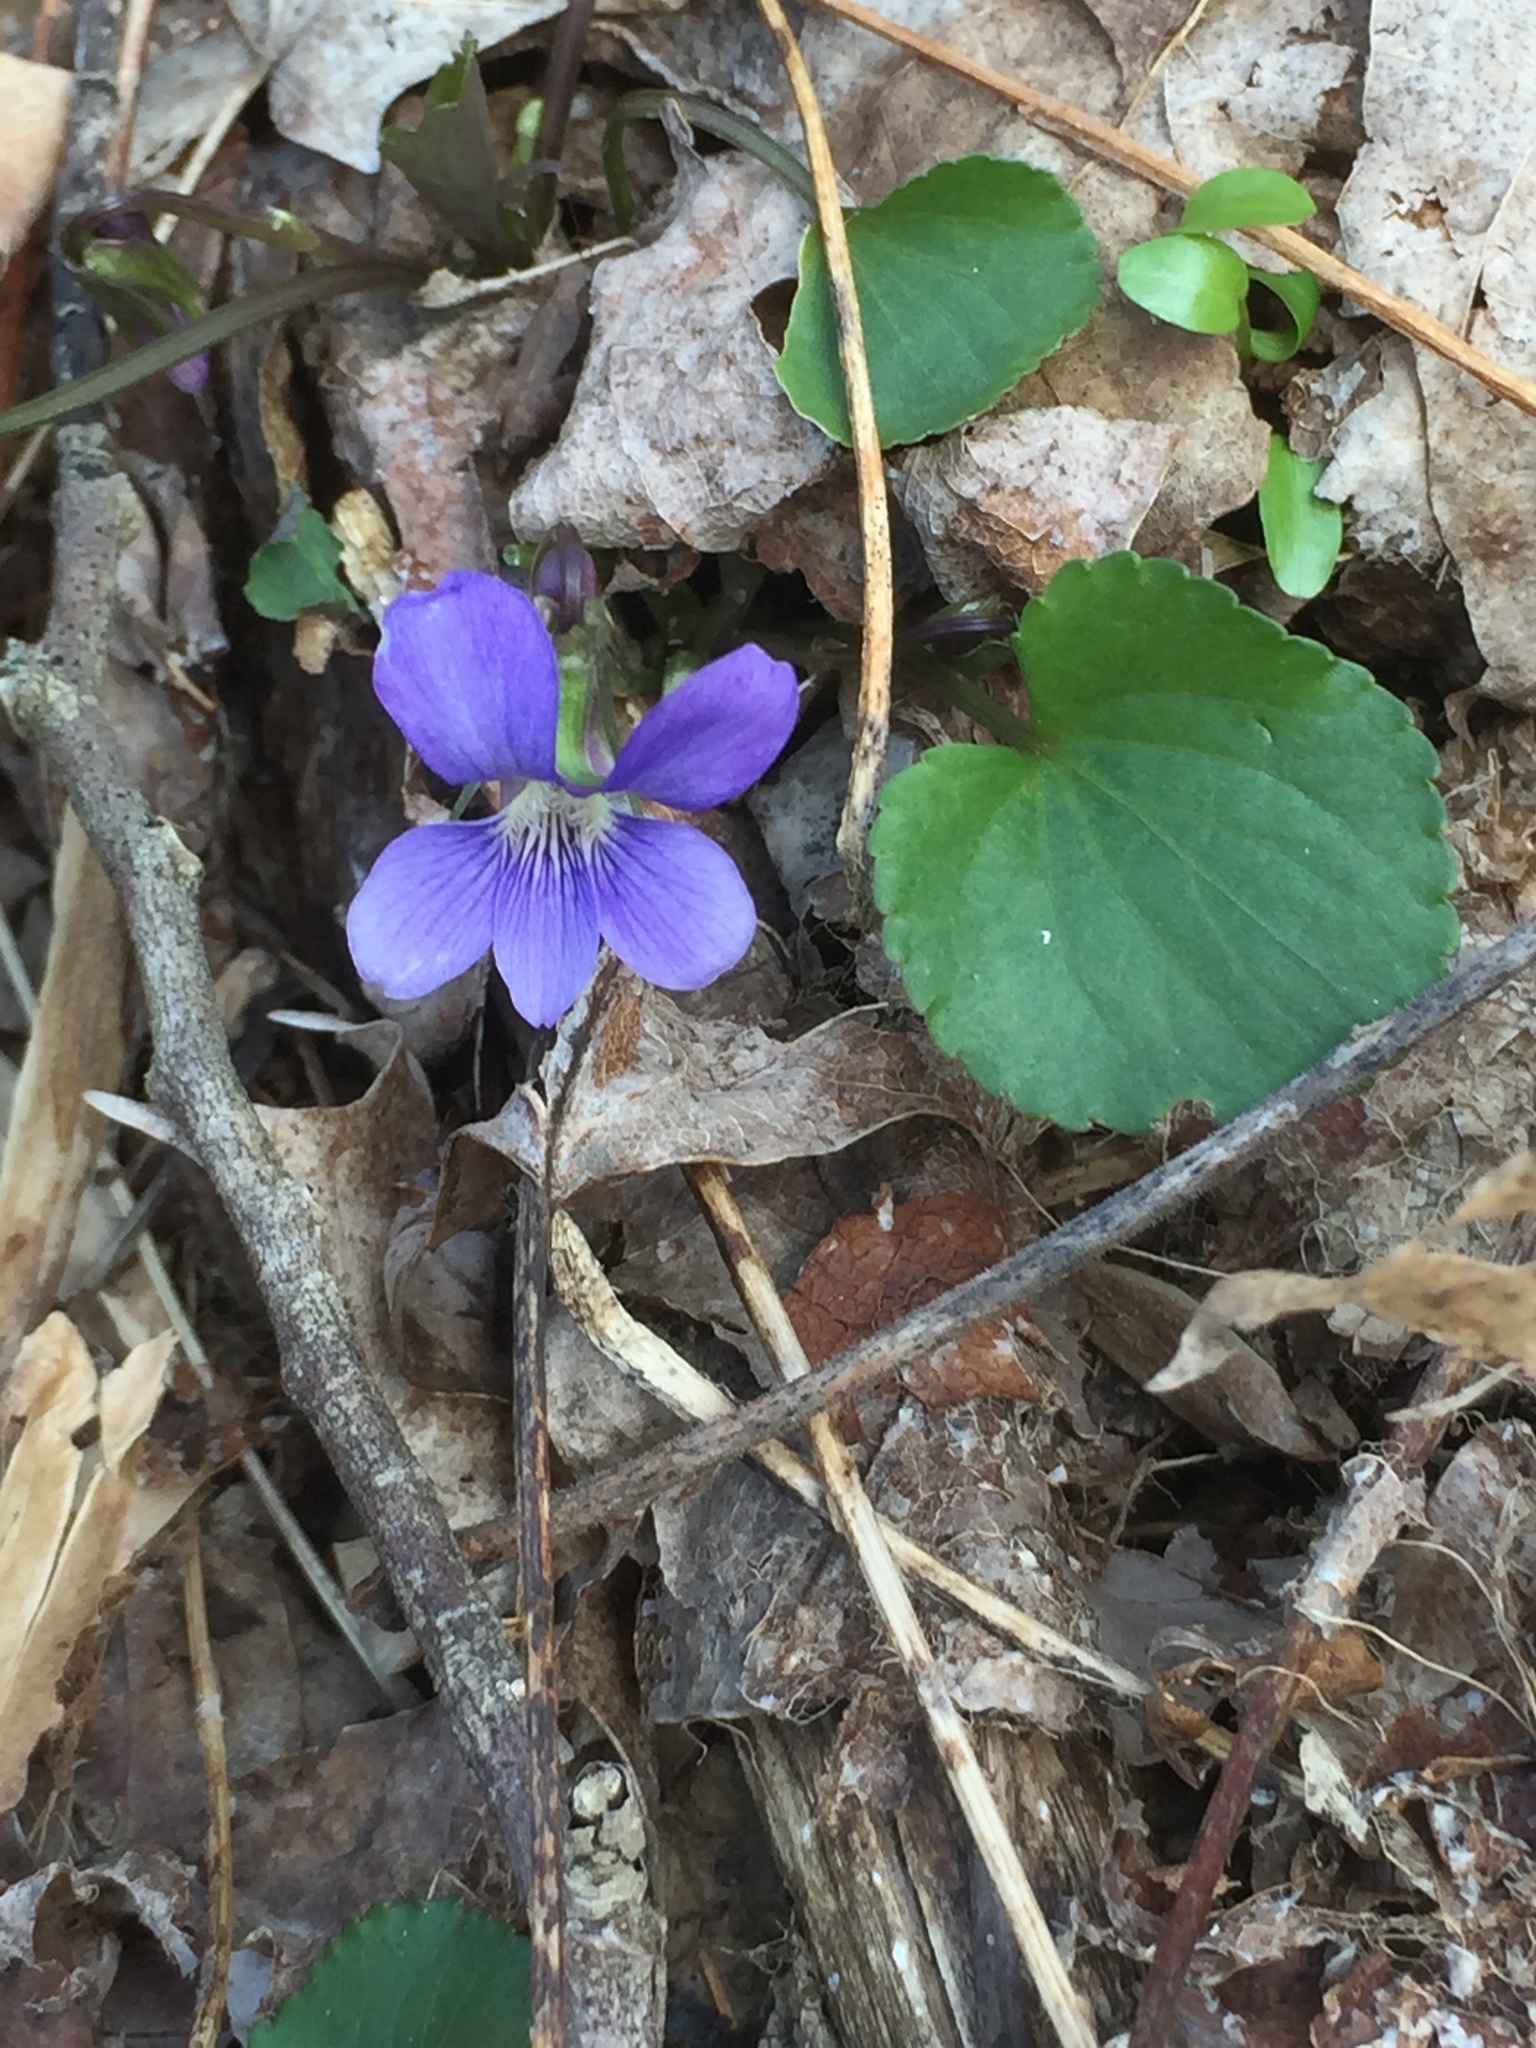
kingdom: Plantae
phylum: Tracheophyta
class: Magnoliopsida
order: Malpighiales
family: Violaceae
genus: Viola
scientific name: Viola sororia
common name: Dooryard violet
